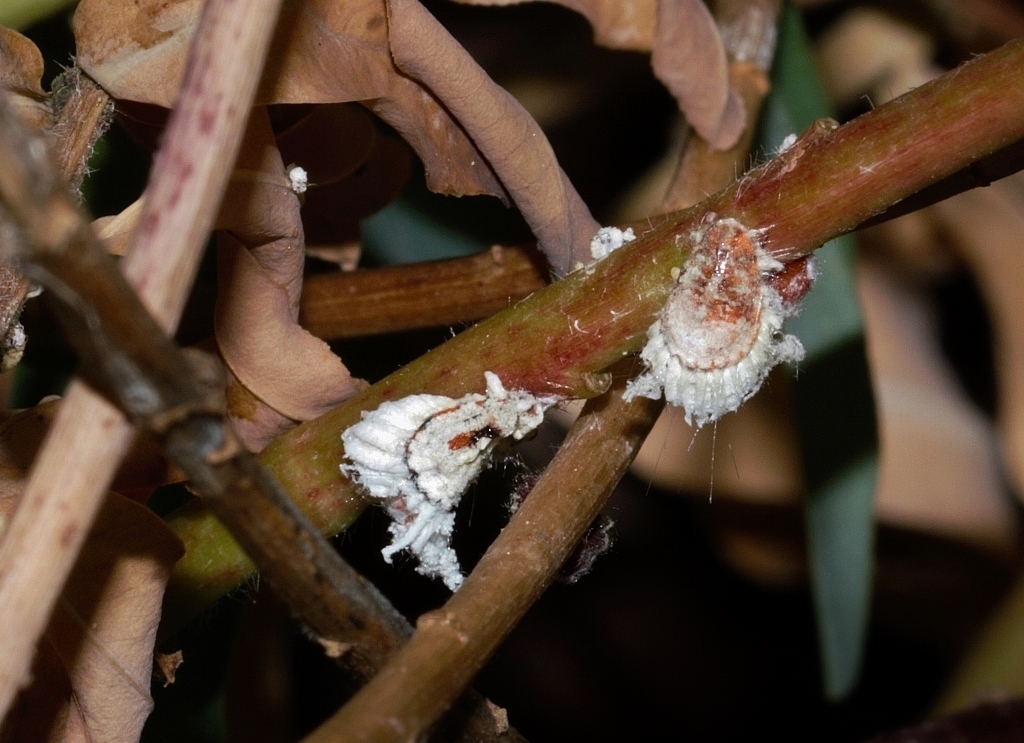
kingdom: Animalia
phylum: Arthropoda
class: Insecta
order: Hemiptera
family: Margarodidae
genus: Icerya
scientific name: Icerya purchasi
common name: Cottony cushion scale
